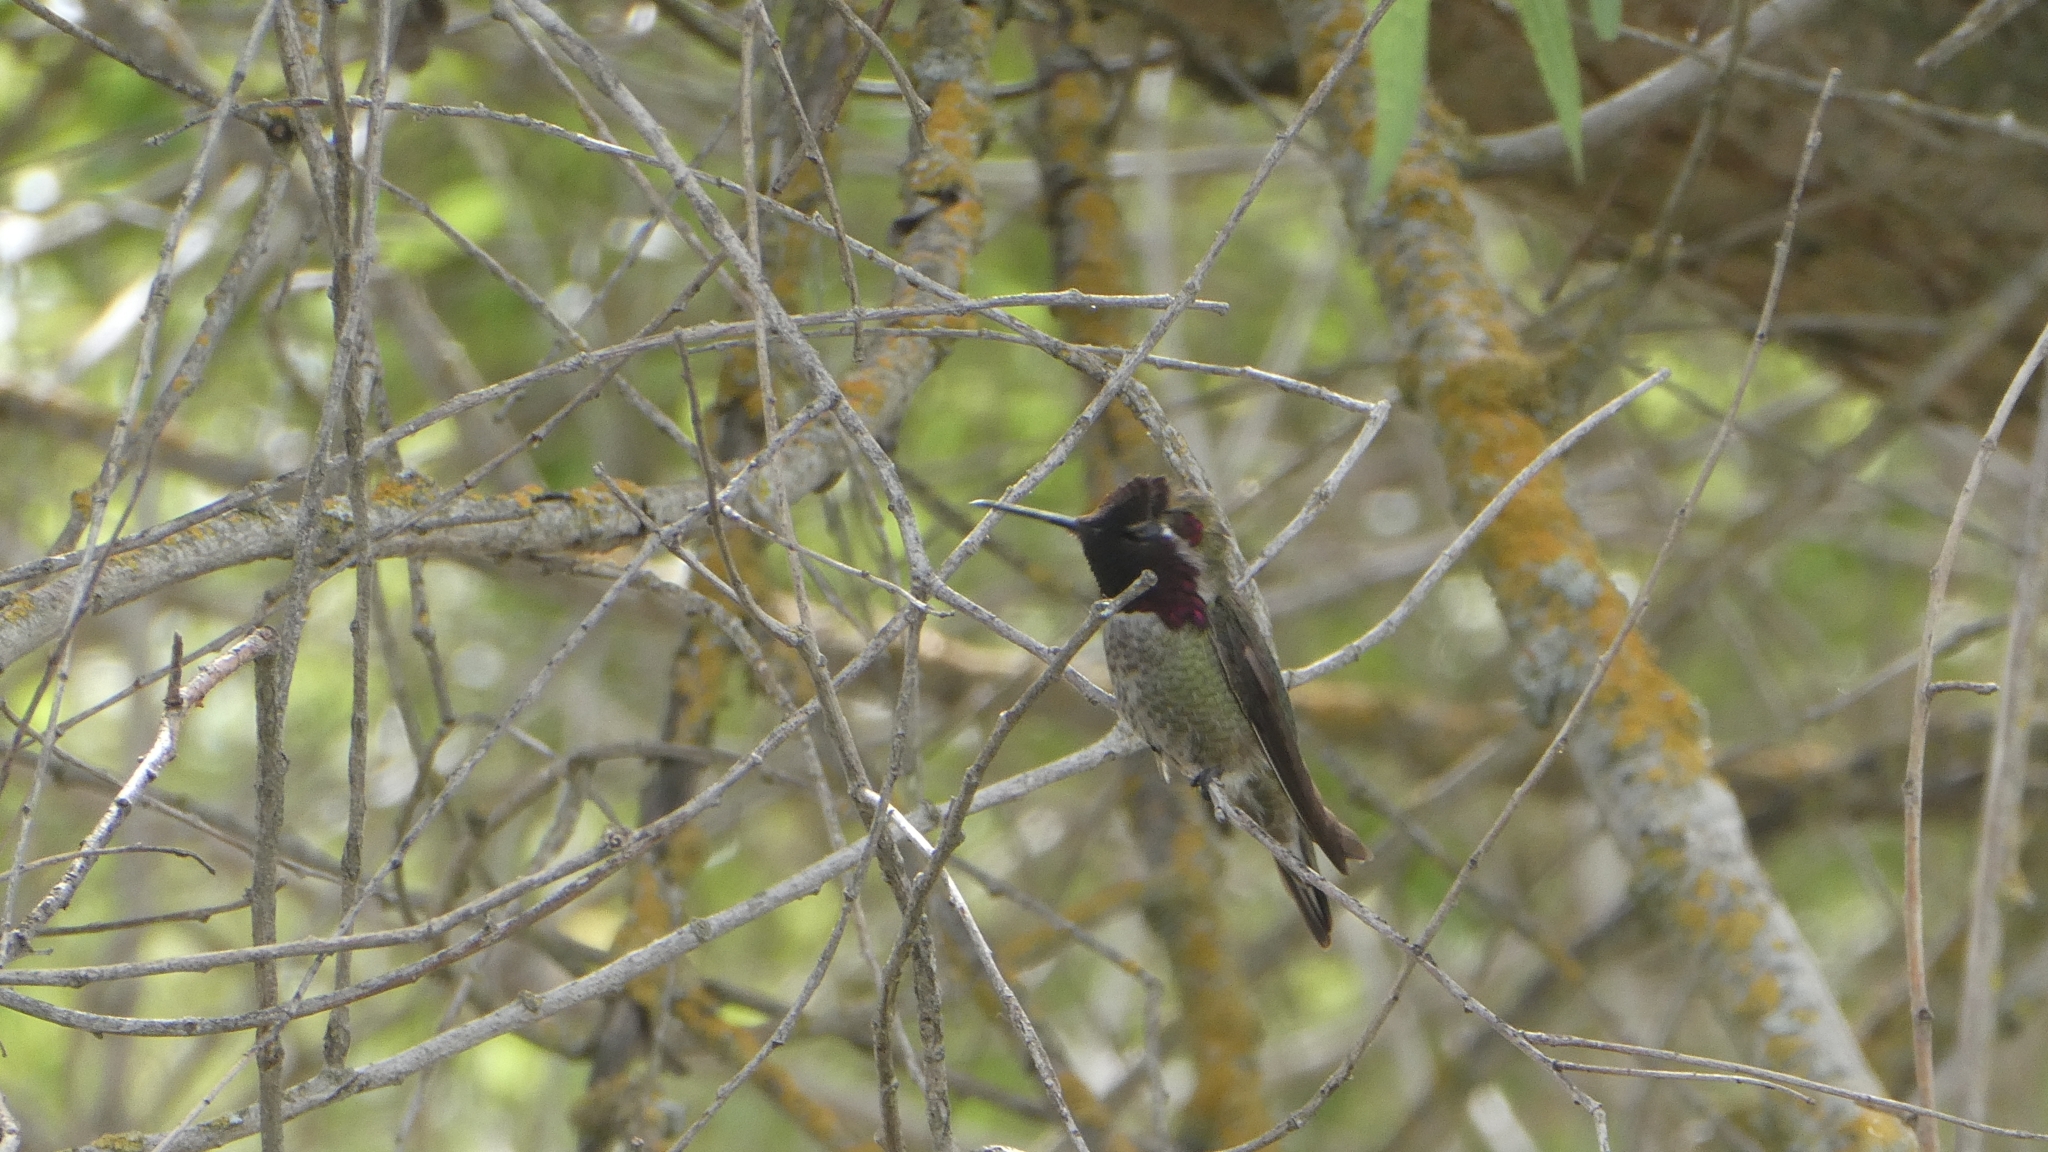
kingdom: Animalia
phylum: Chordata
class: Aves
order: Apodiformes
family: Trochilidae
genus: Calypte
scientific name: Calypte anna
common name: Anna's hummingbird
